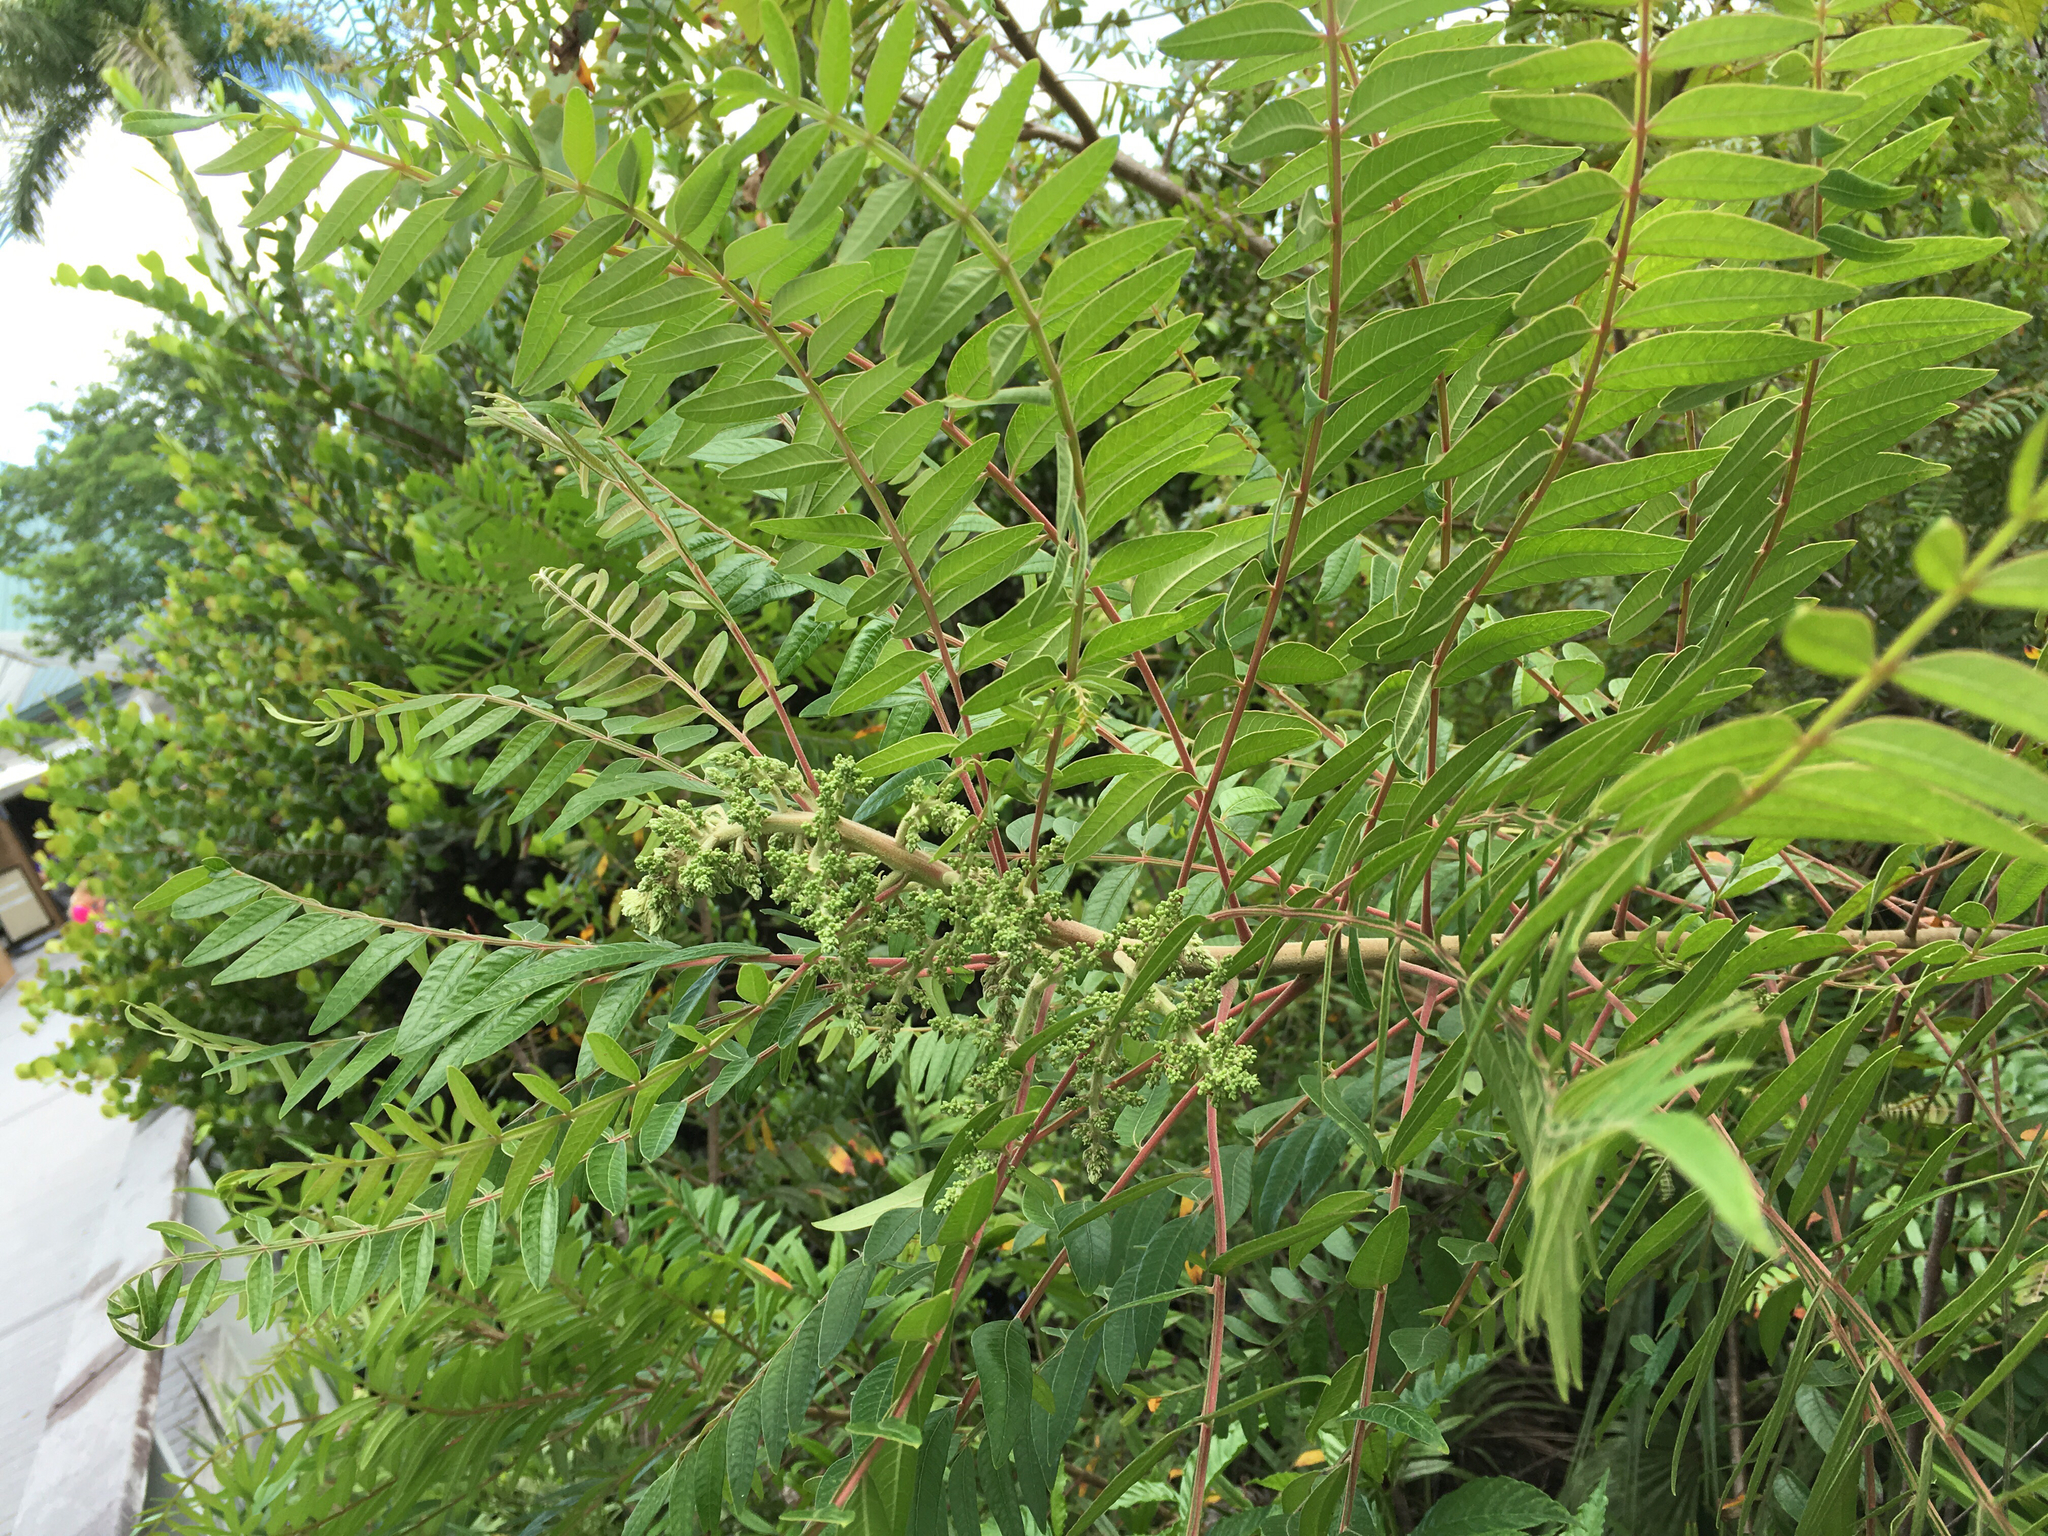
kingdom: Plantae
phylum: Tracheophyta
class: Magnoliopsida
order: Sapindales
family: Anacardiaceae
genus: Rhus
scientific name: Rhus copallina
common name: Shining sumac
